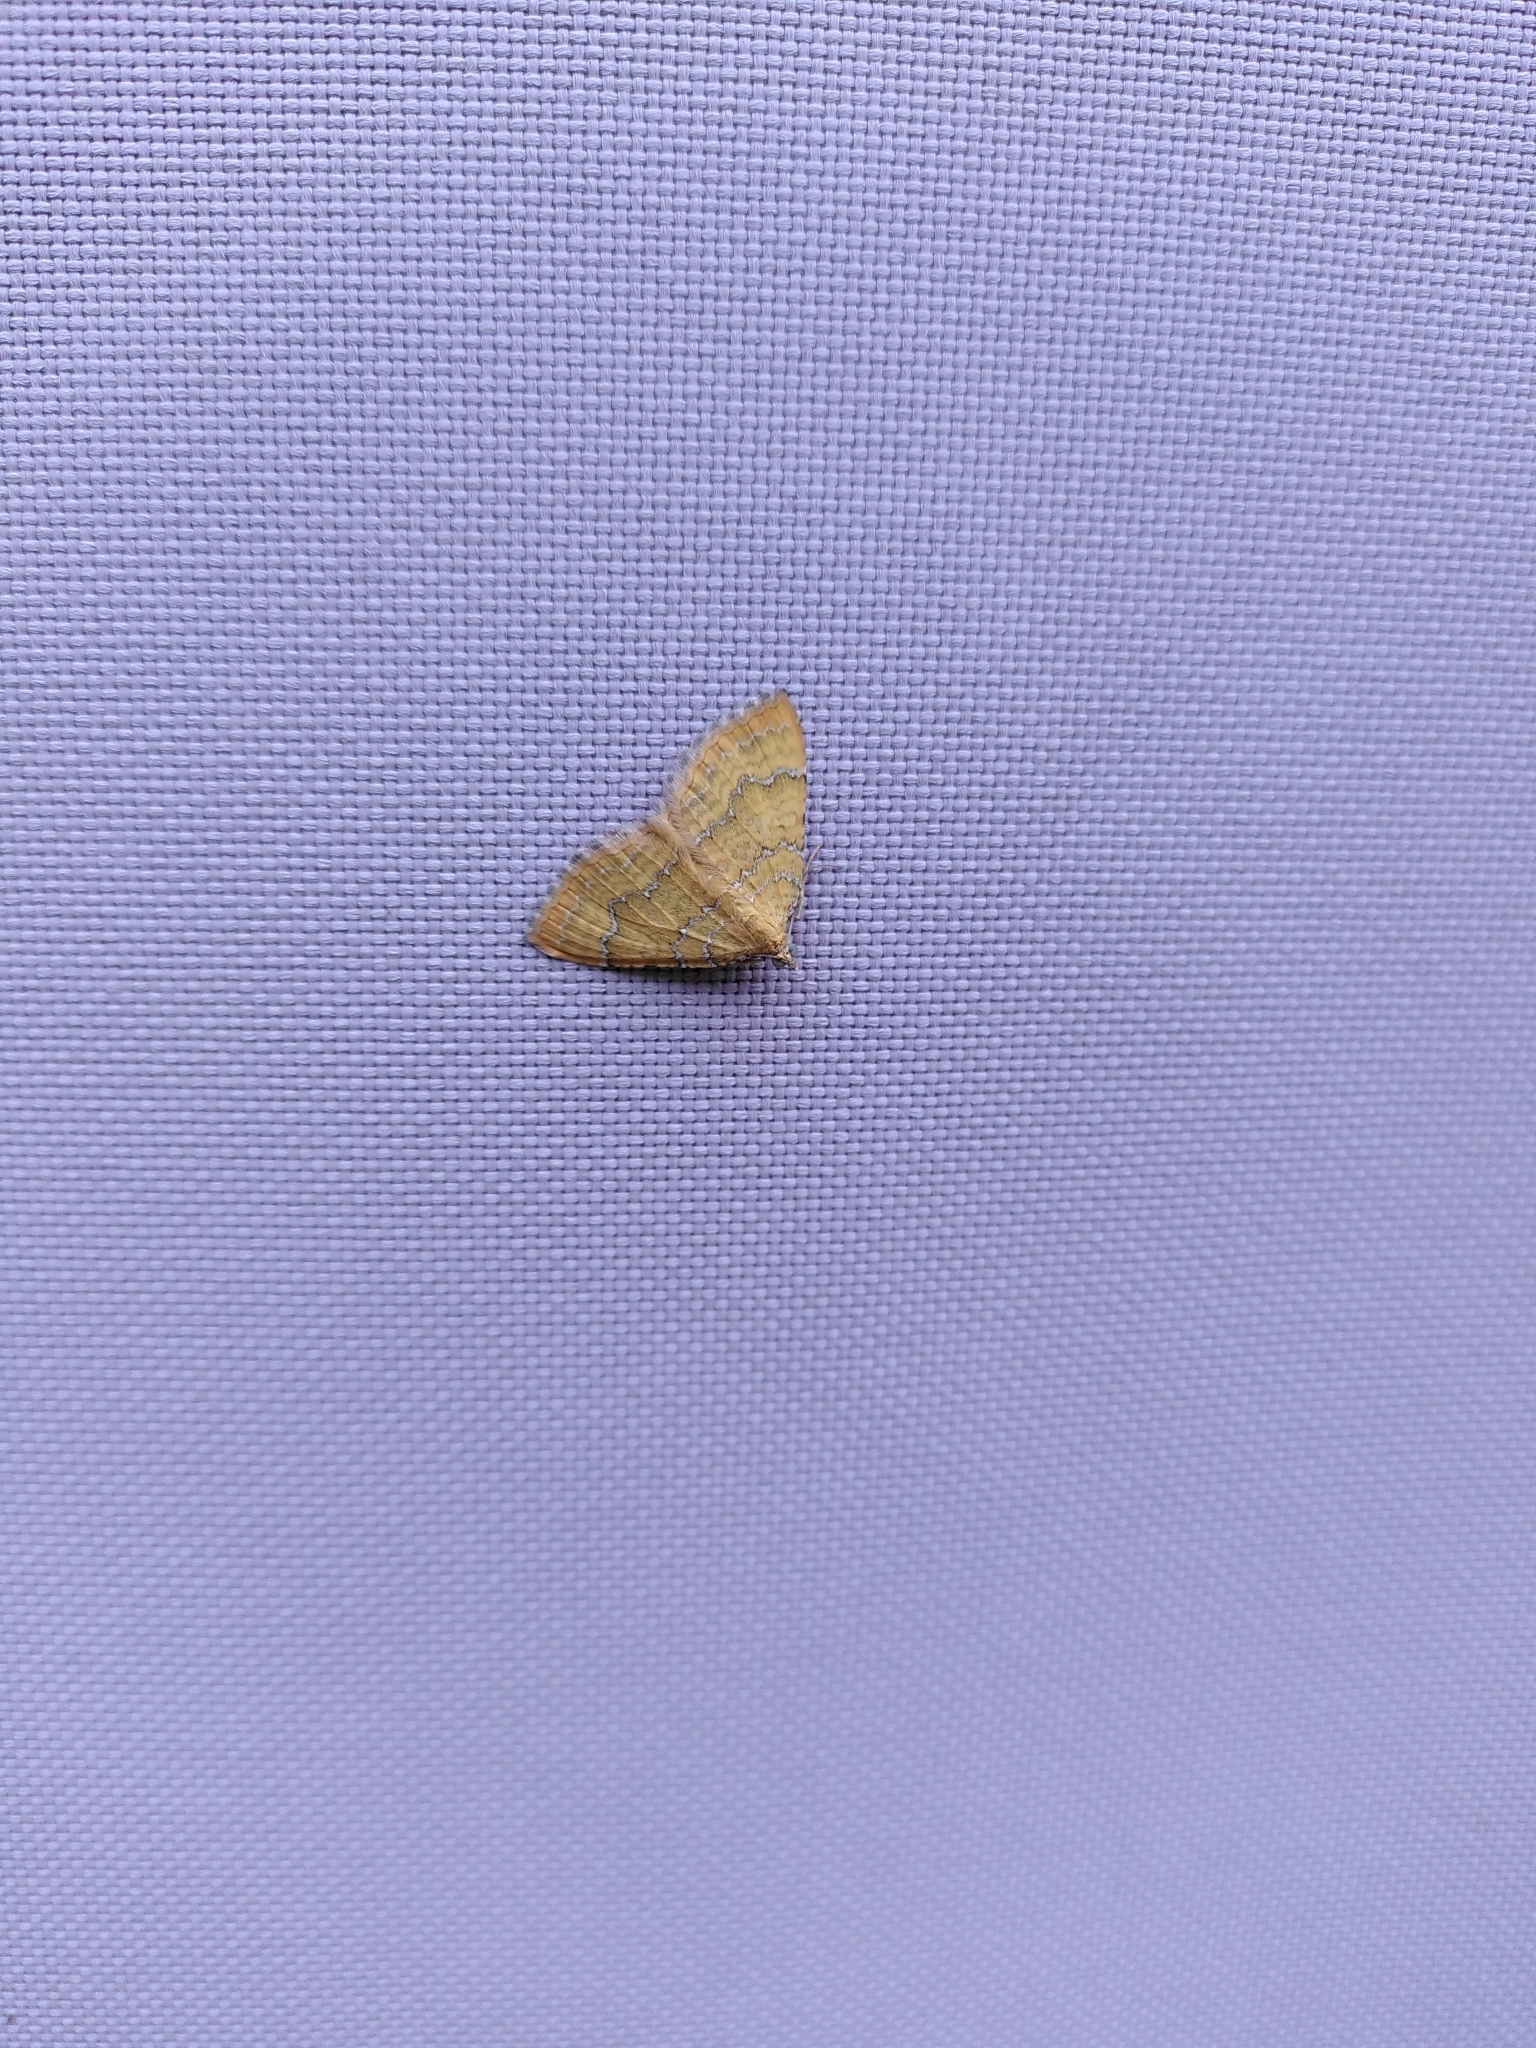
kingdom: Animalia
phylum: Arthropoda
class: Insecta
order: Lepidoptera
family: Geometridae
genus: Camptogramma
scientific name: Camptogramma bilineata
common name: Yellow shell
